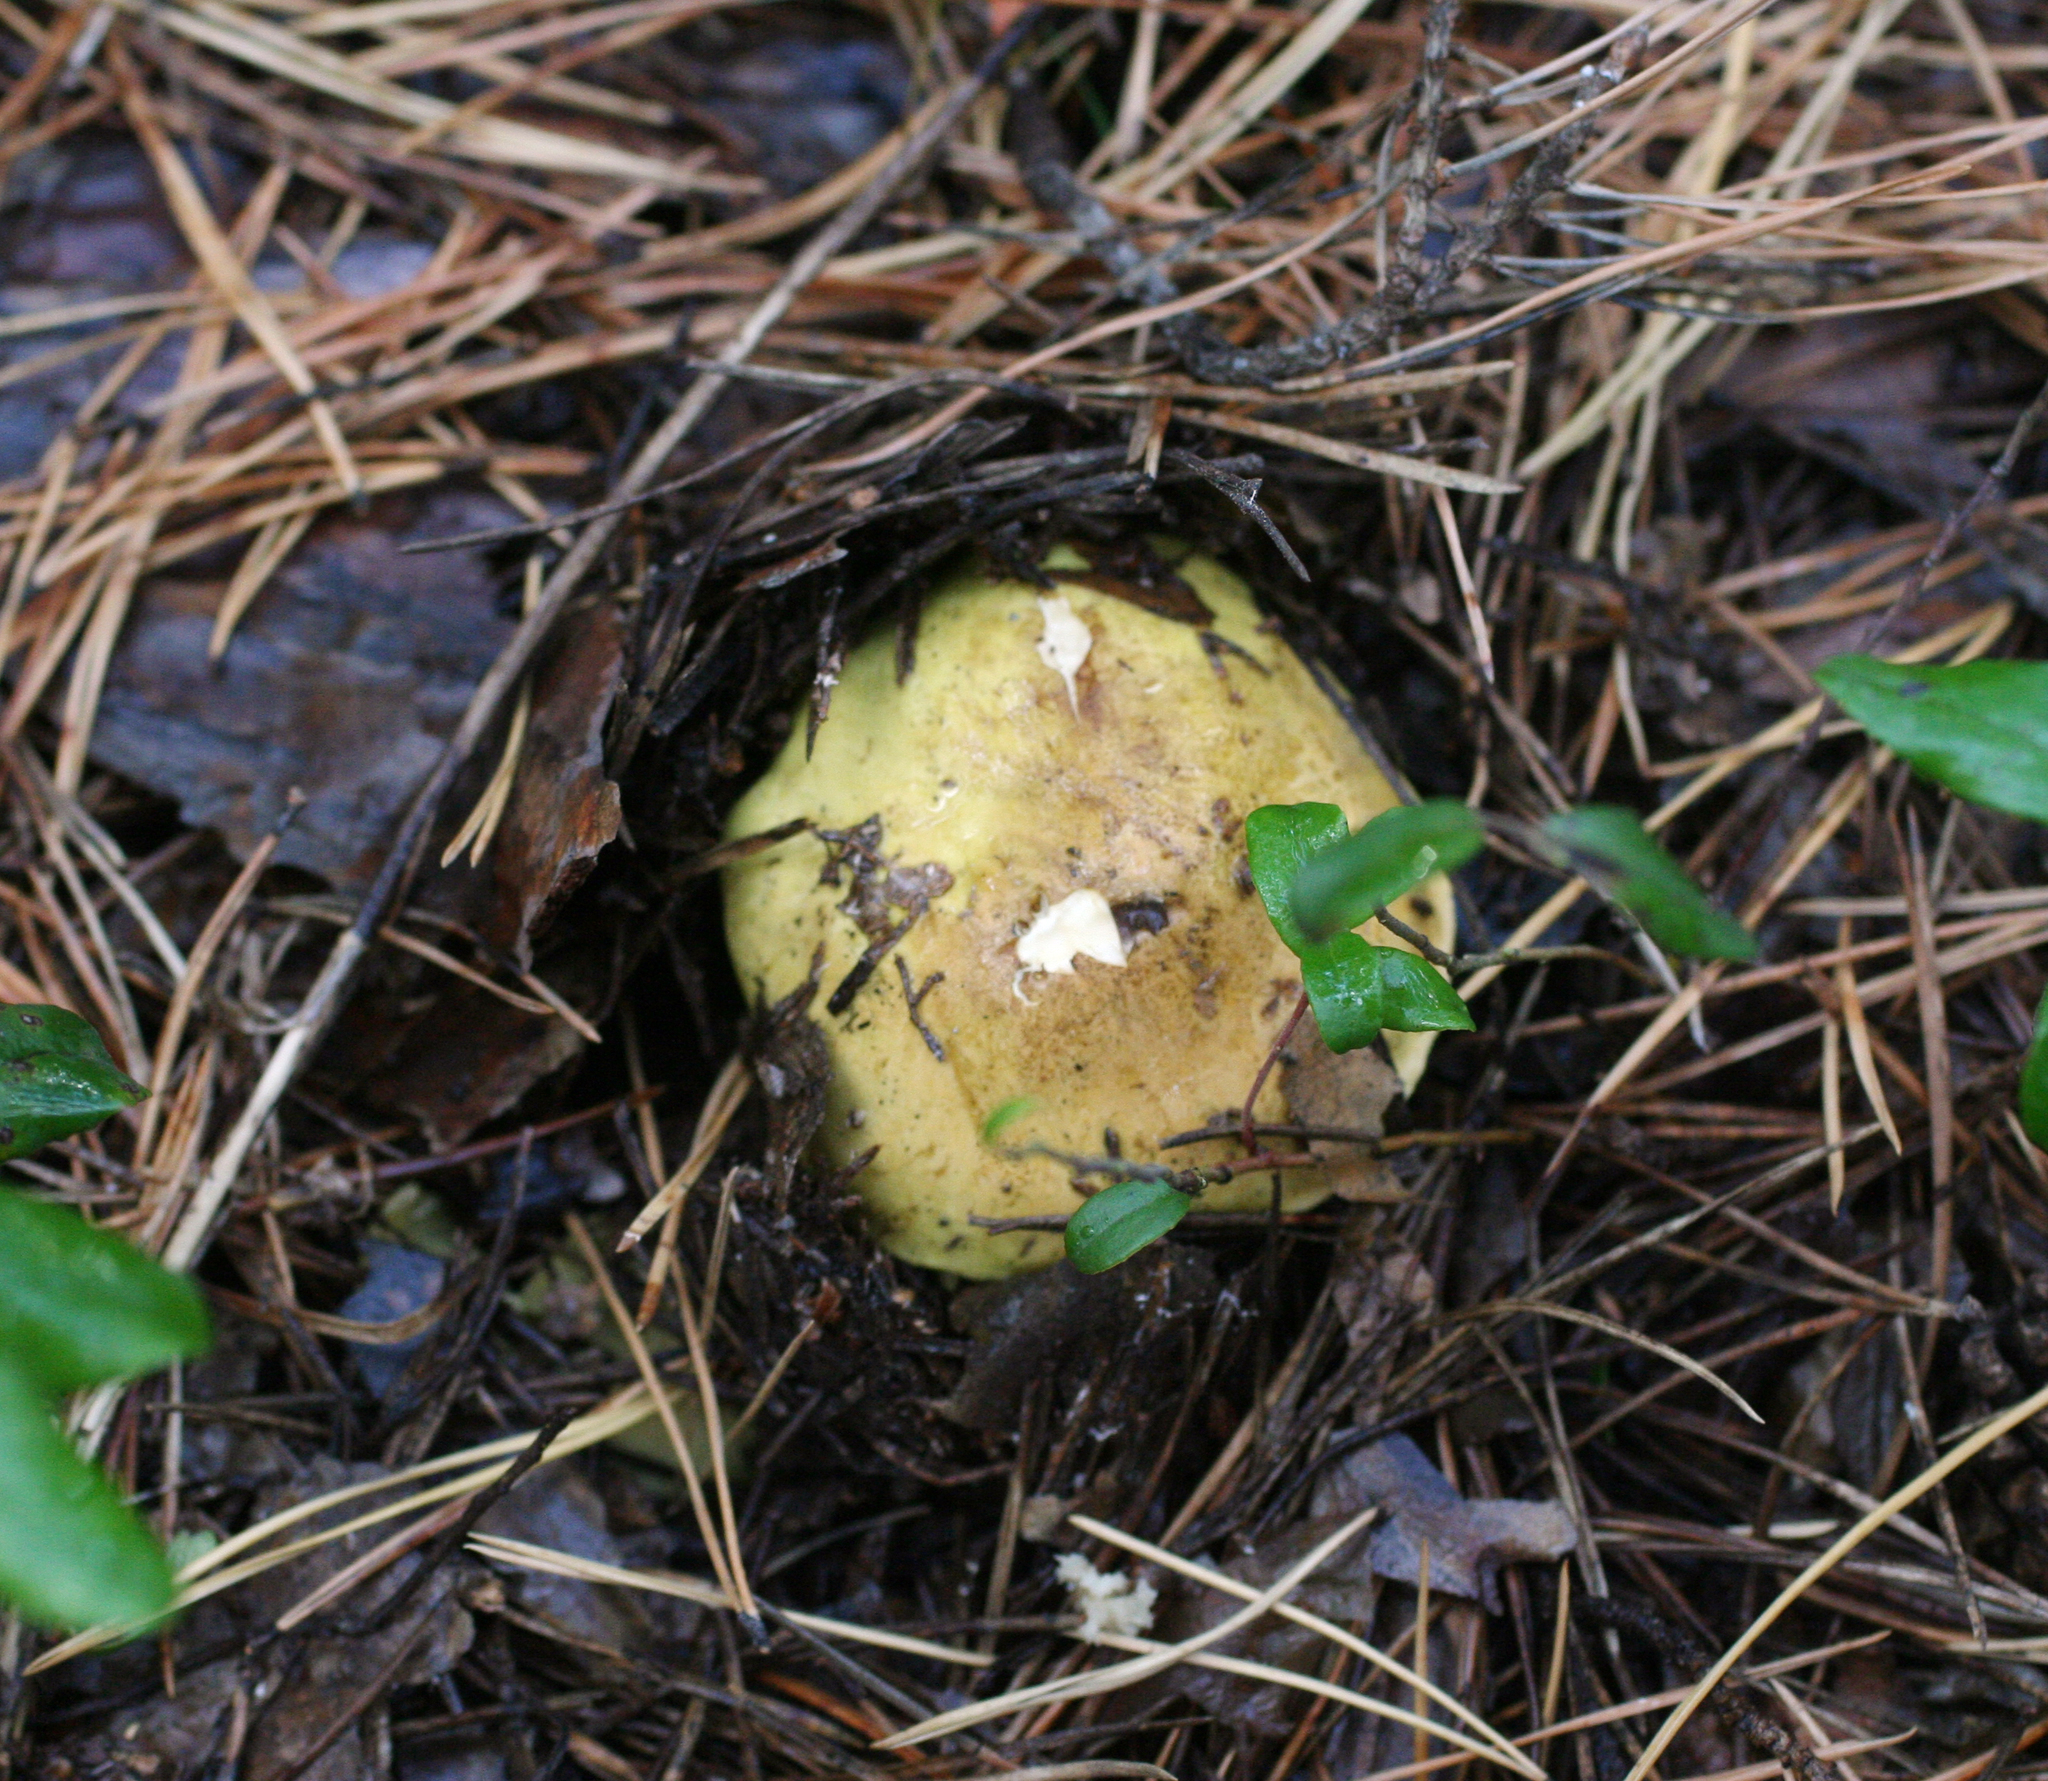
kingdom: Fungi
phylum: Basidiomycota
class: Agaricomycetes
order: Agaricales
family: Tricholomataceae
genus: Tricholoma
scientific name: Tricholoma equestre
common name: Yellow knight
